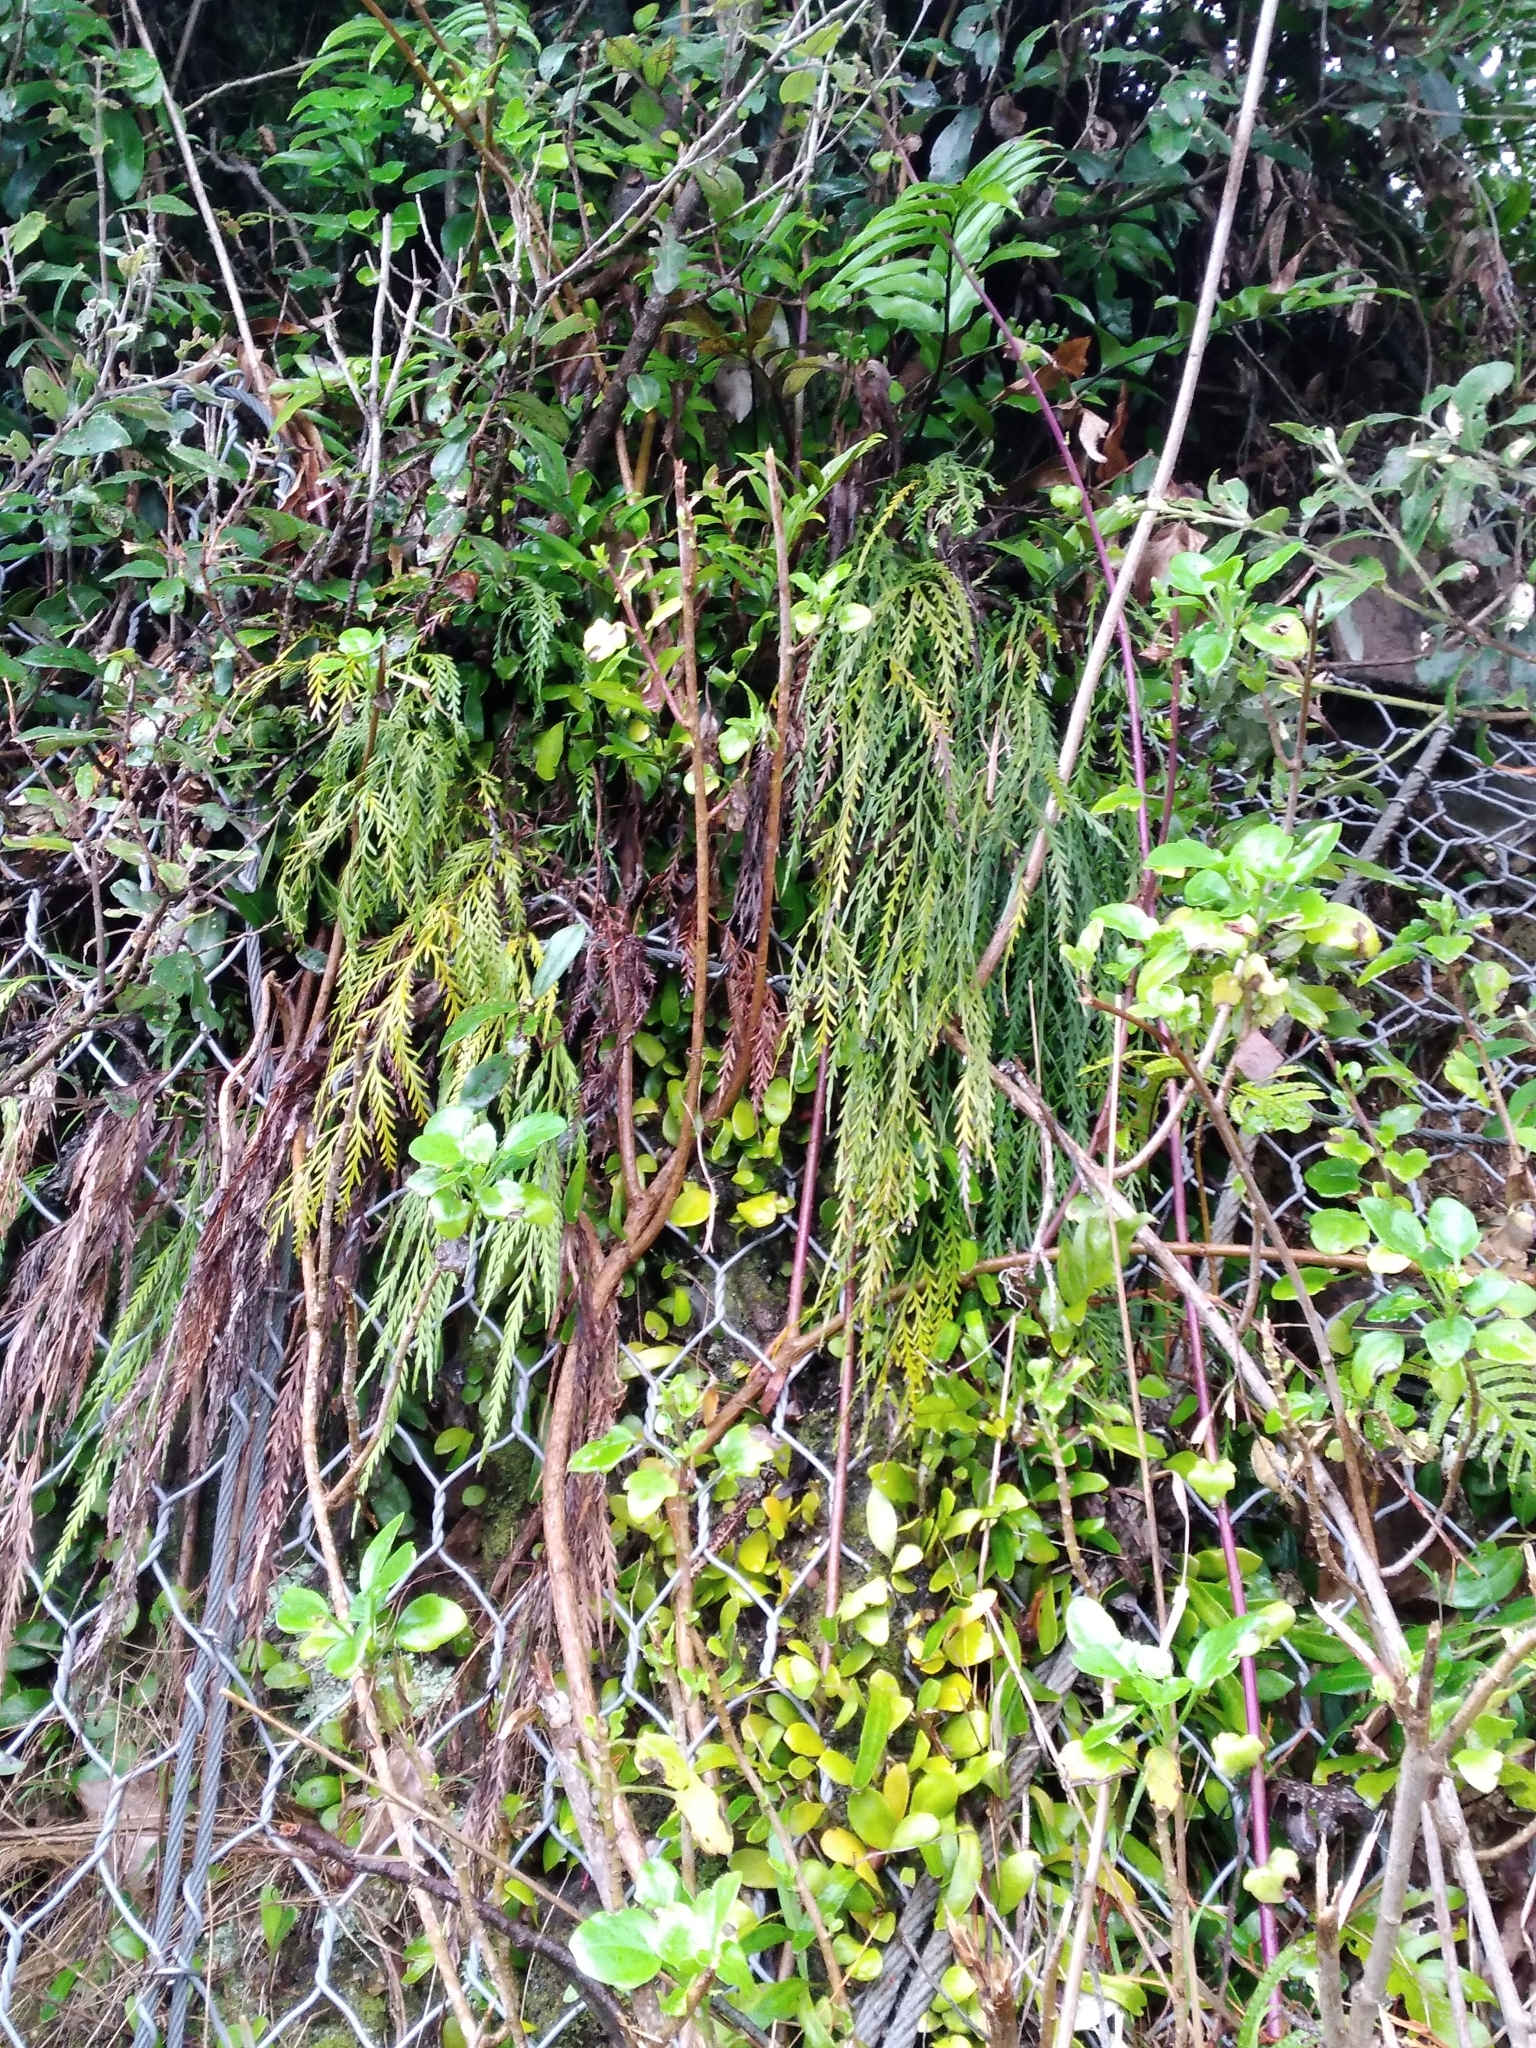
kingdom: Plantae
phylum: Tracheophyta
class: Polypodiopsida
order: Polypodiales
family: Aspleniaceae
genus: Asplenium
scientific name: Asplenium flaccidum
